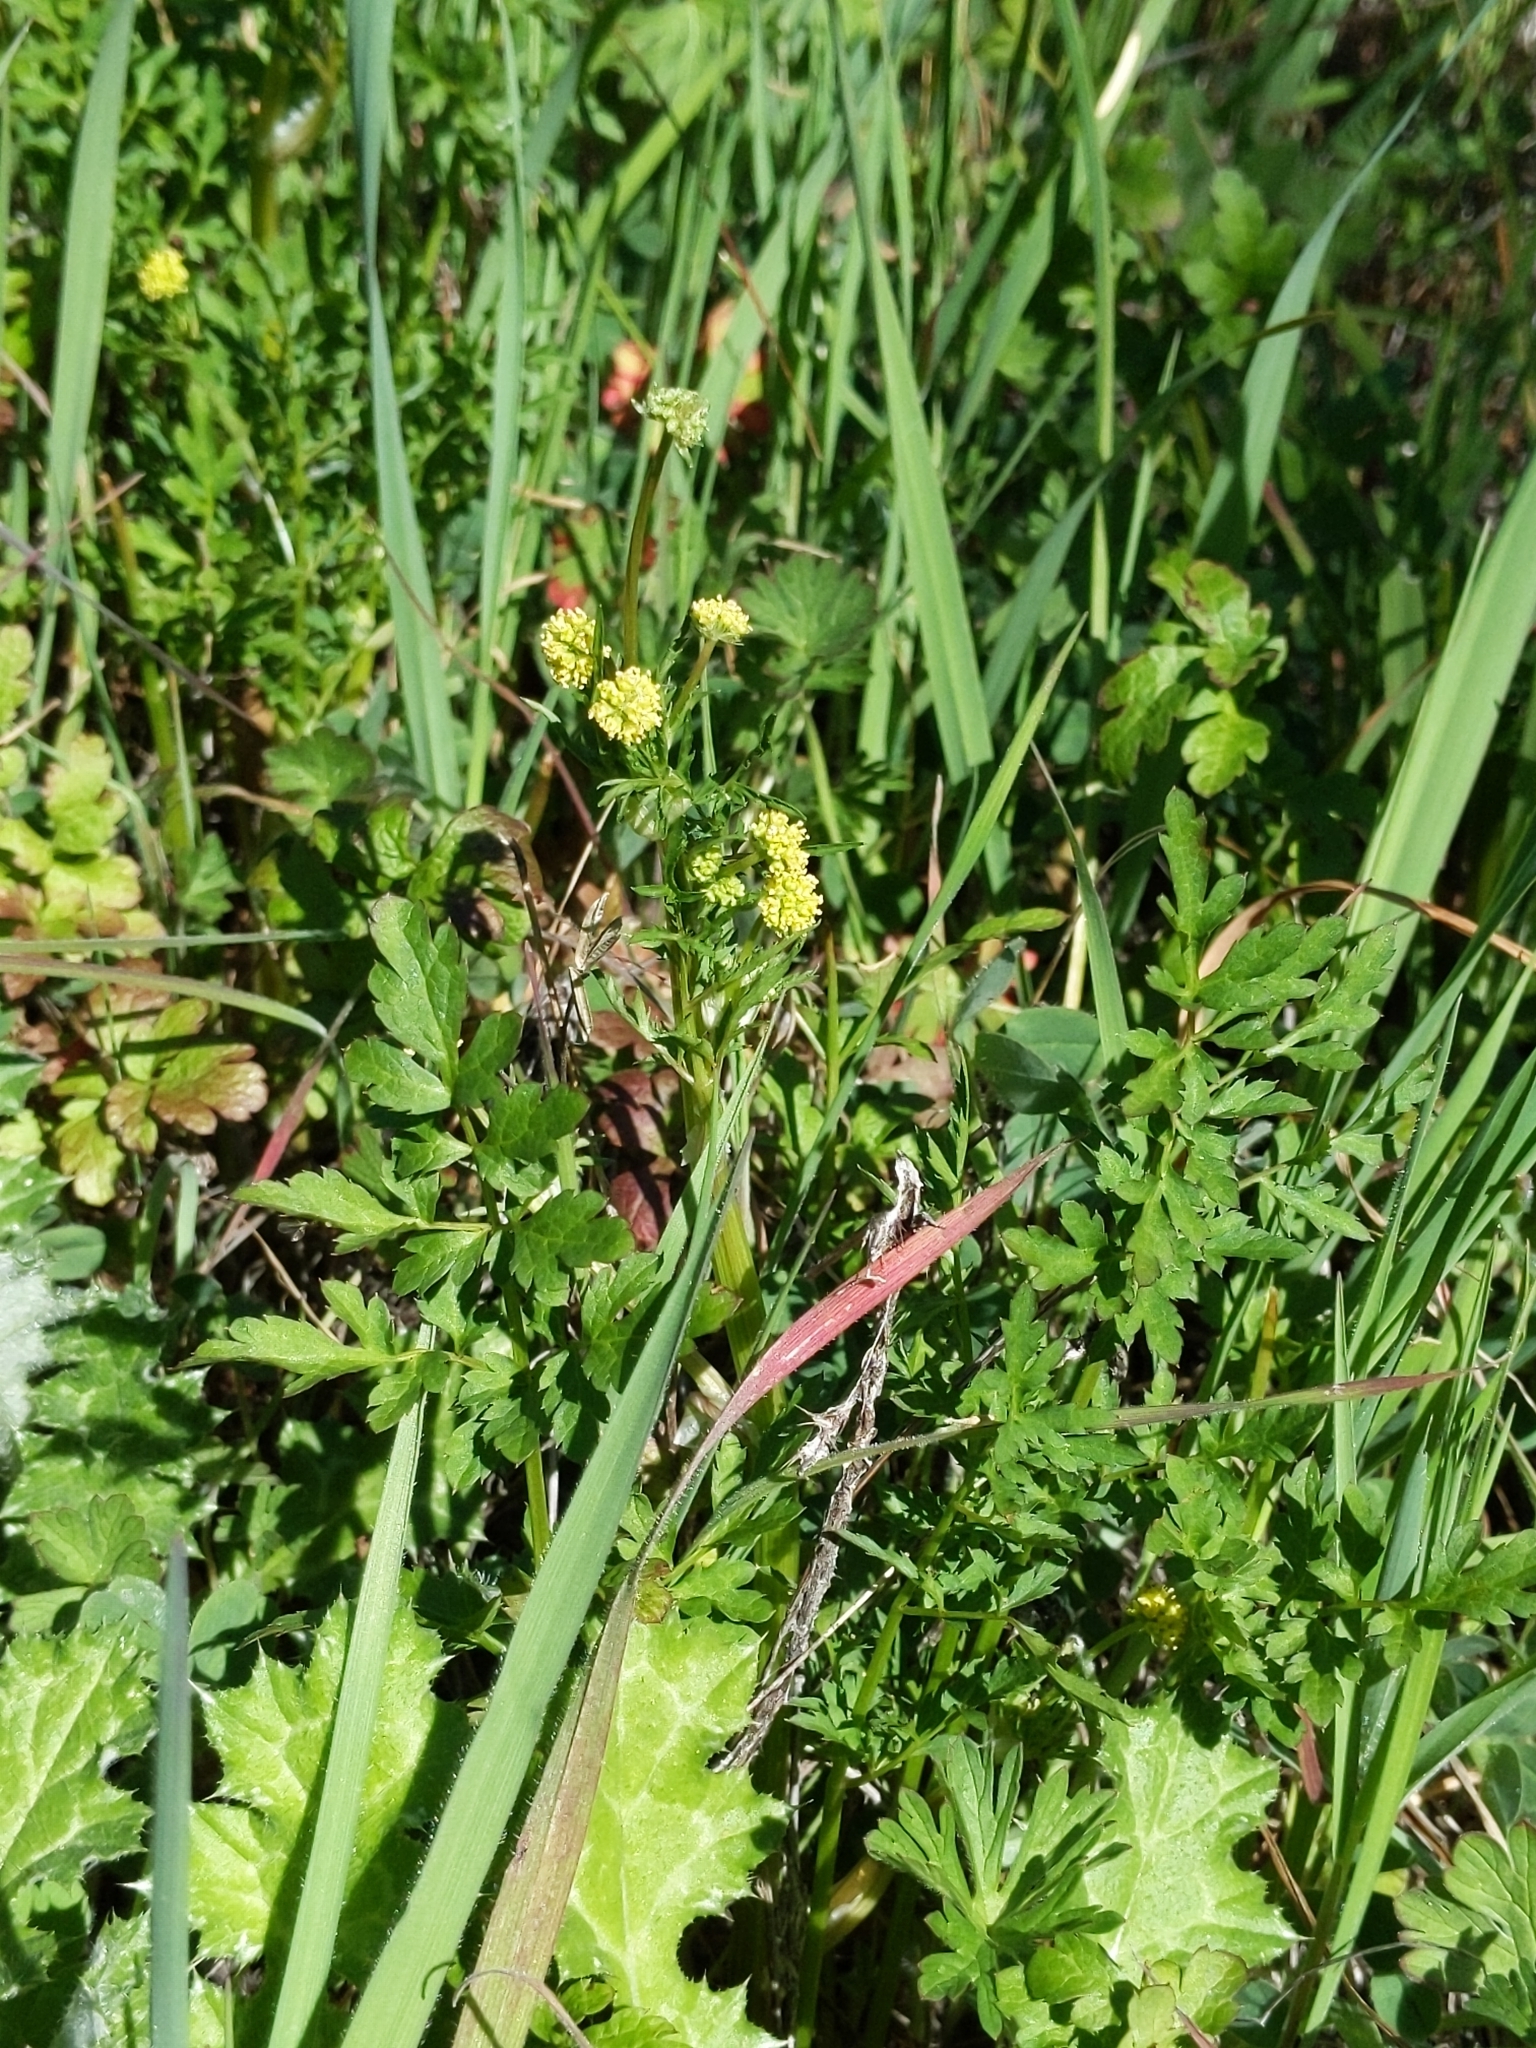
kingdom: Plantae
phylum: Tracheophyta
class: Magnoliopsida
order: Apiales
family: Apiaceae
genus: Sanicula
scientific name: Sanicula bipinnata
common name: Poison sanicle
